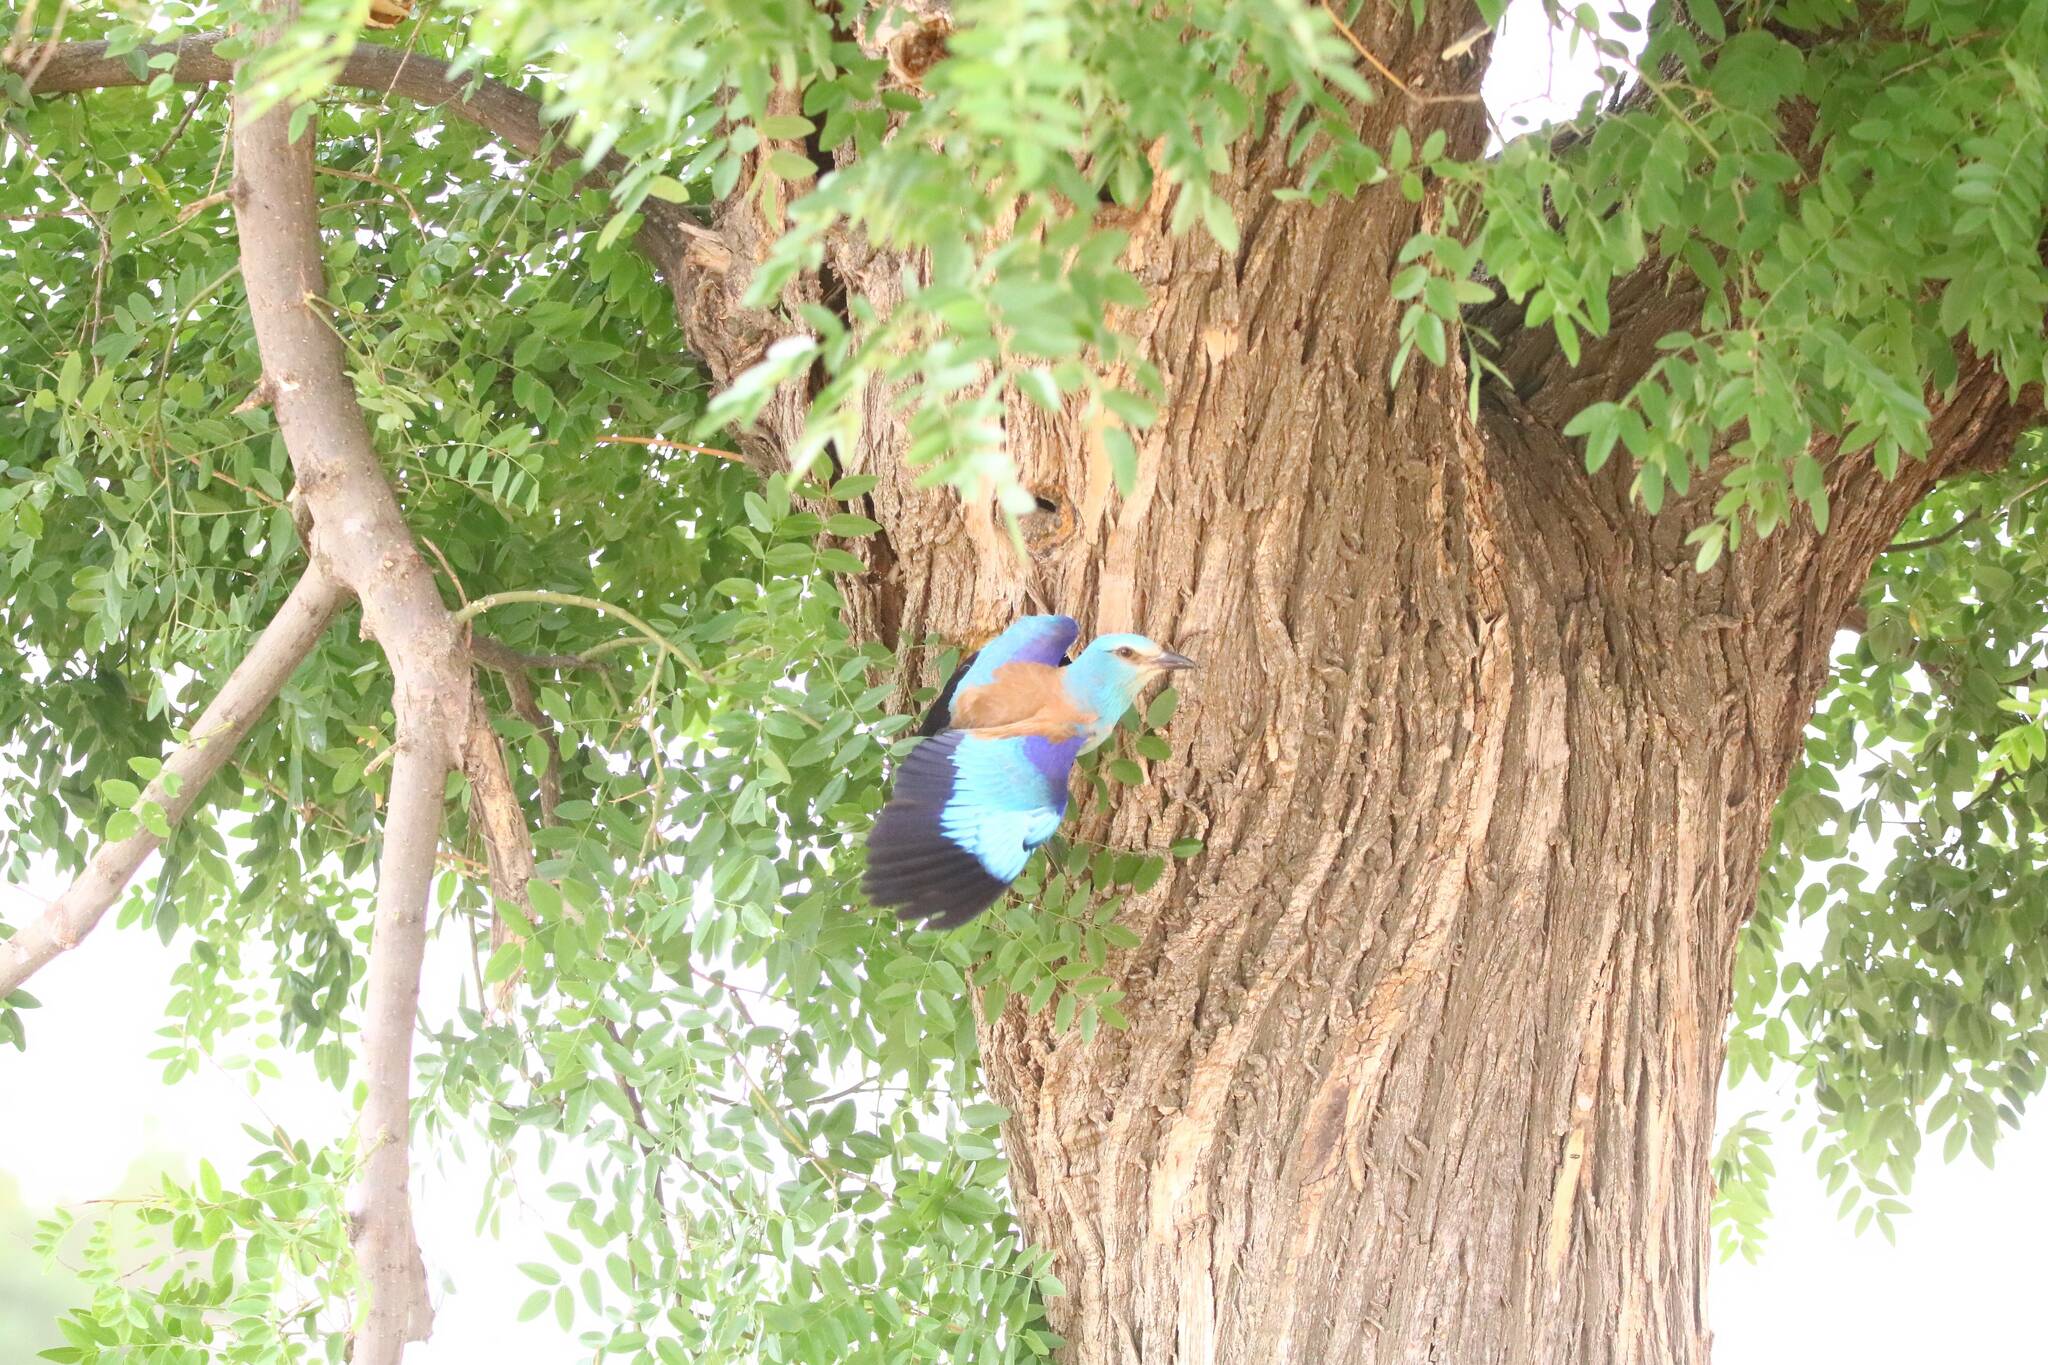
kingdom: Animalia
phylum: Chordata
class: Aves
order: Coraciiformes
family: Coraciidae
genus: Coracias
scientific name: Coracias garrulus
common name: European roller
